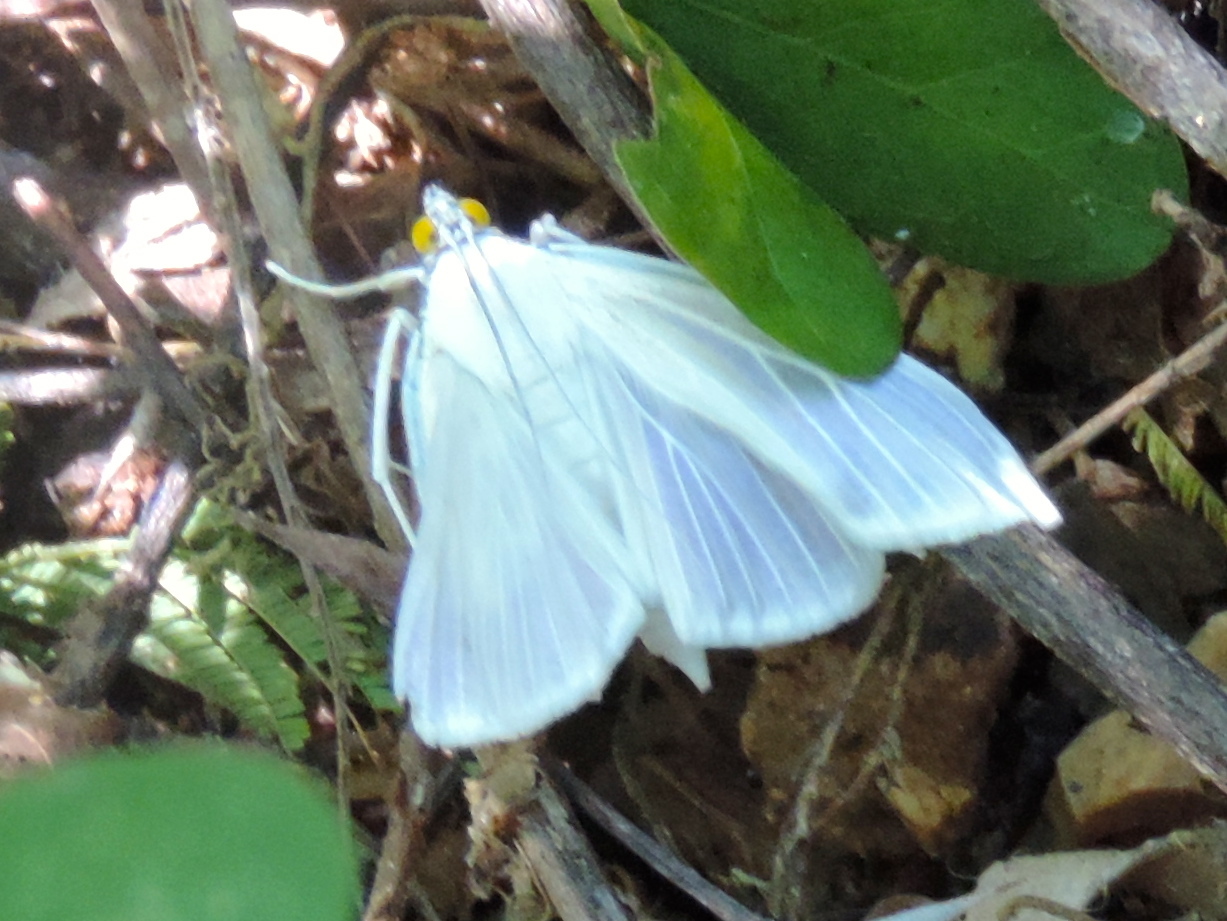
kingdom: Animalia
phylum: Arthropoda
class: Insecta
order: Lepidoptera
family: Crambidae
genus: Palpita
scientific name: Palpita flegia
